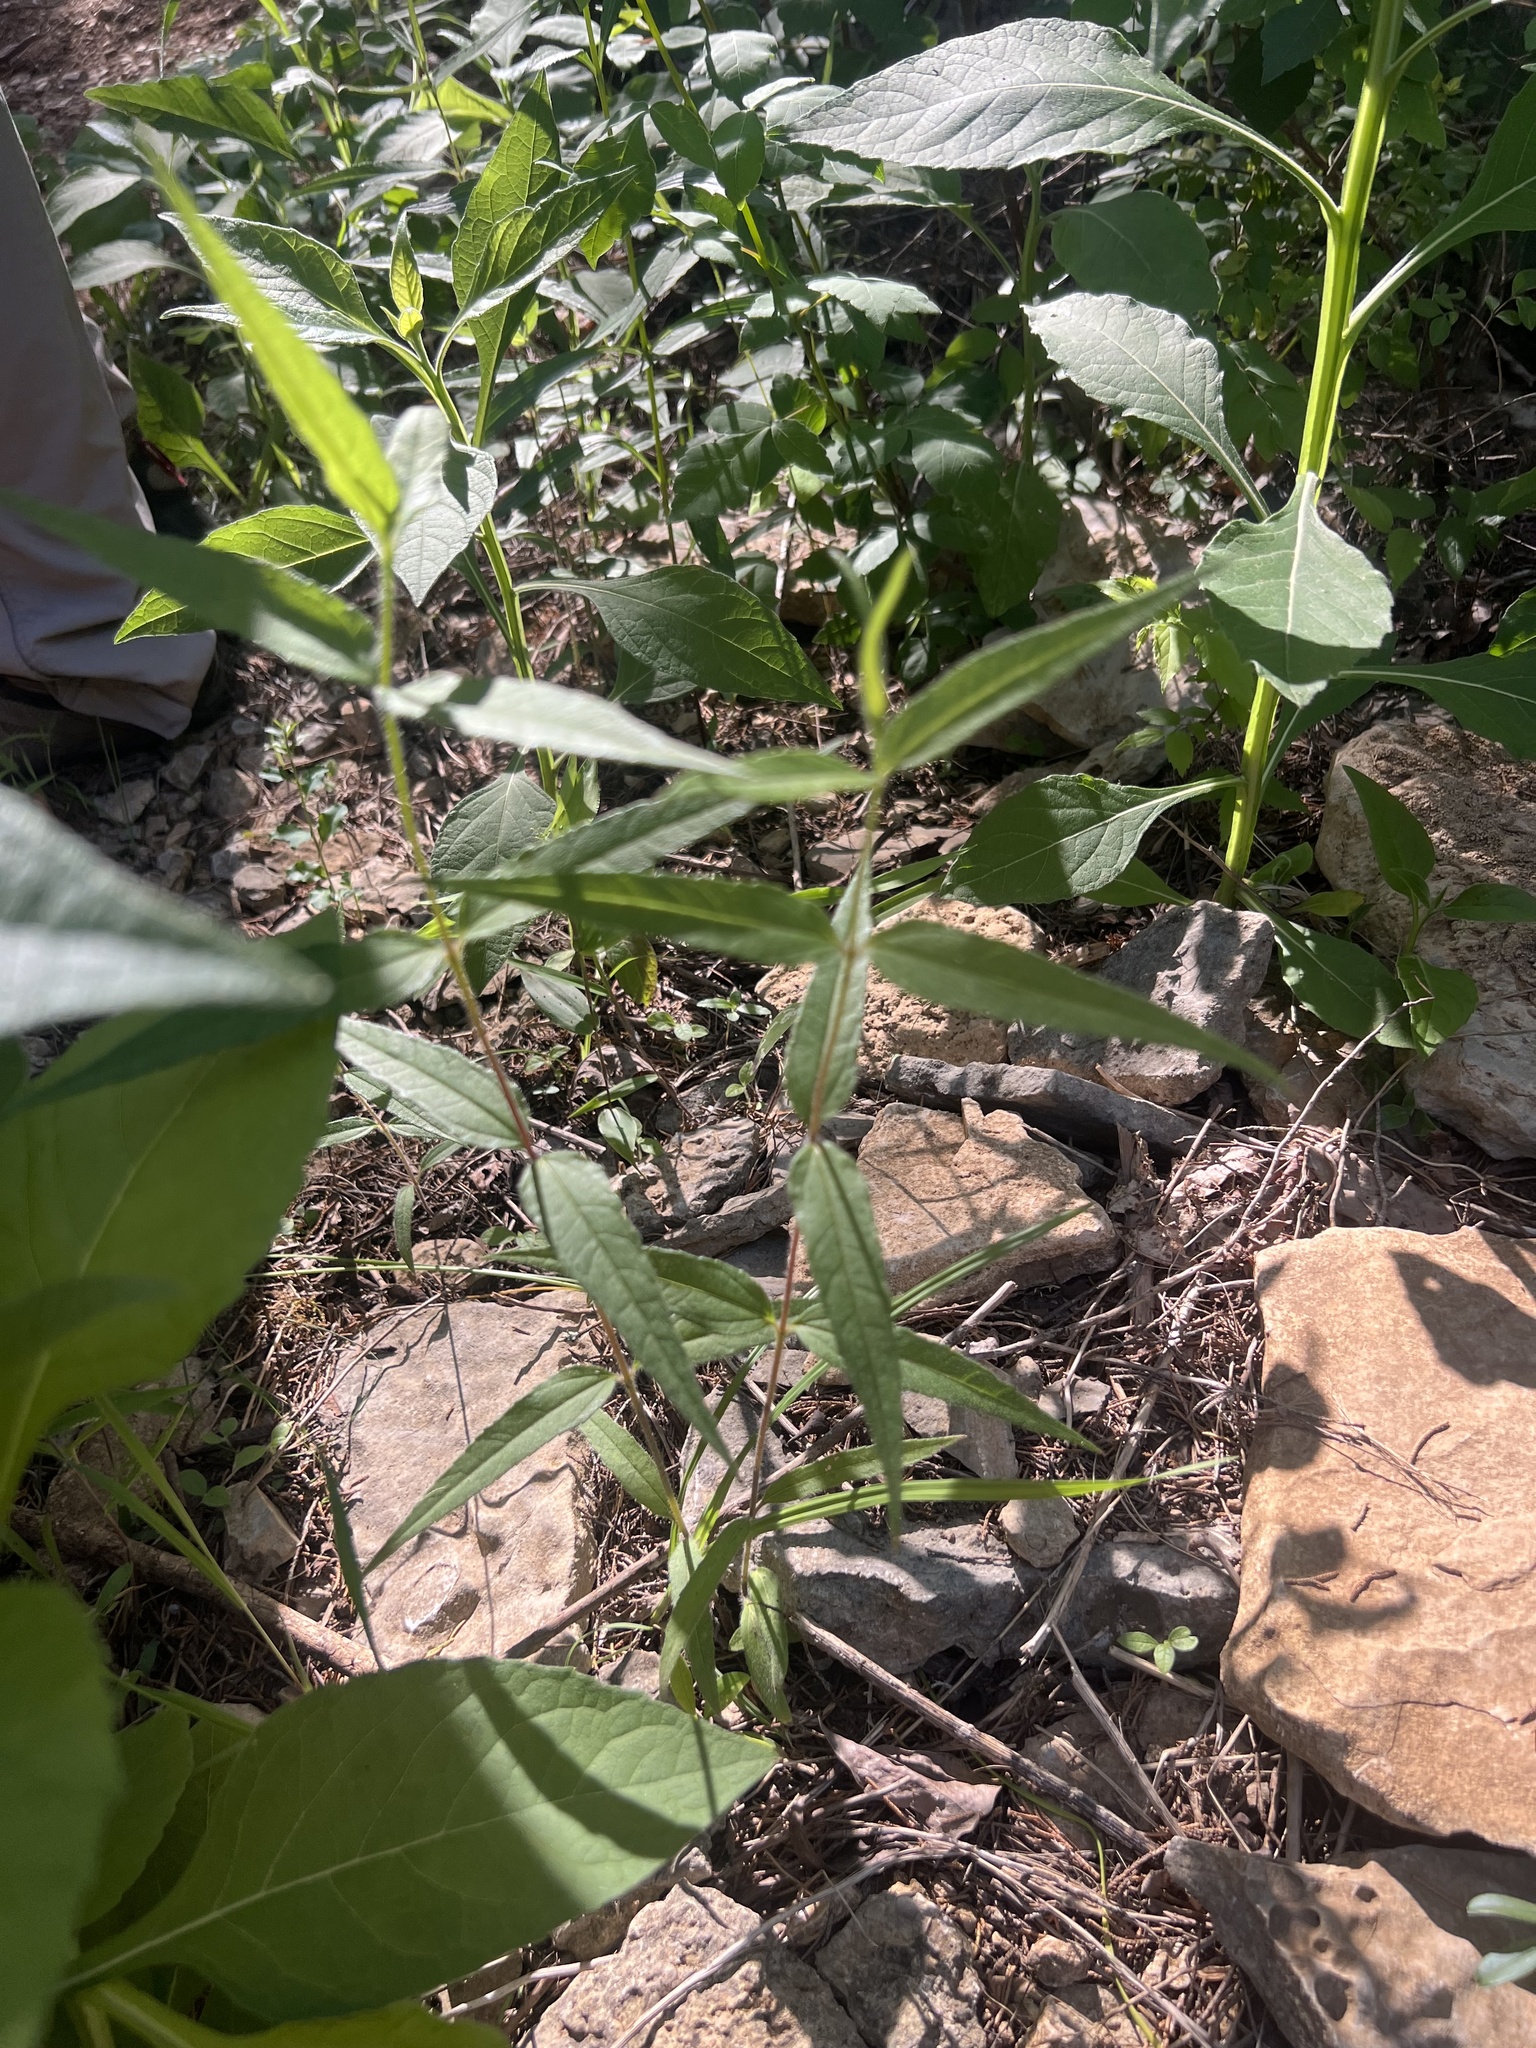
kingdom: Plantae
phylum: Tracheophyta
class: Magnoliopsida
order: Asterales
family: Asteraceae
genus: Helianthus
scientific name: Helianthus hirsutus
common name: Hairy sunflower
